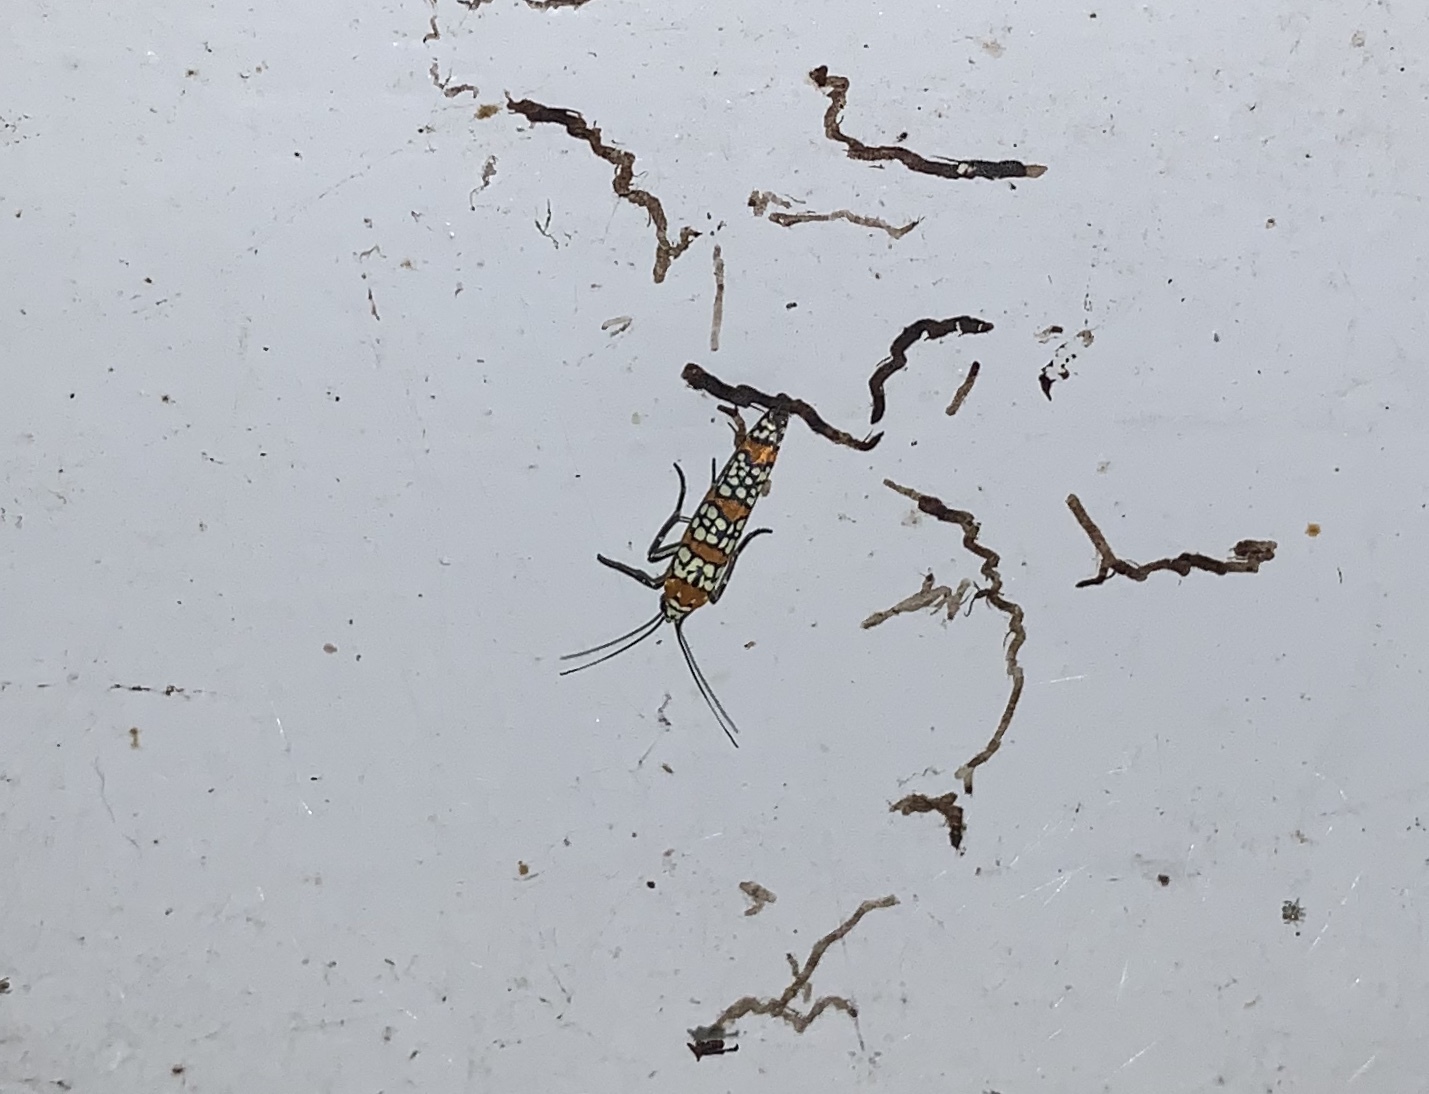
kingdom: Animalia
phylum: Arthropoda
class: Insecta
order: Lepidoptera
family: Attevidae
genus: Atteva
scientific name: Atteva punctella
